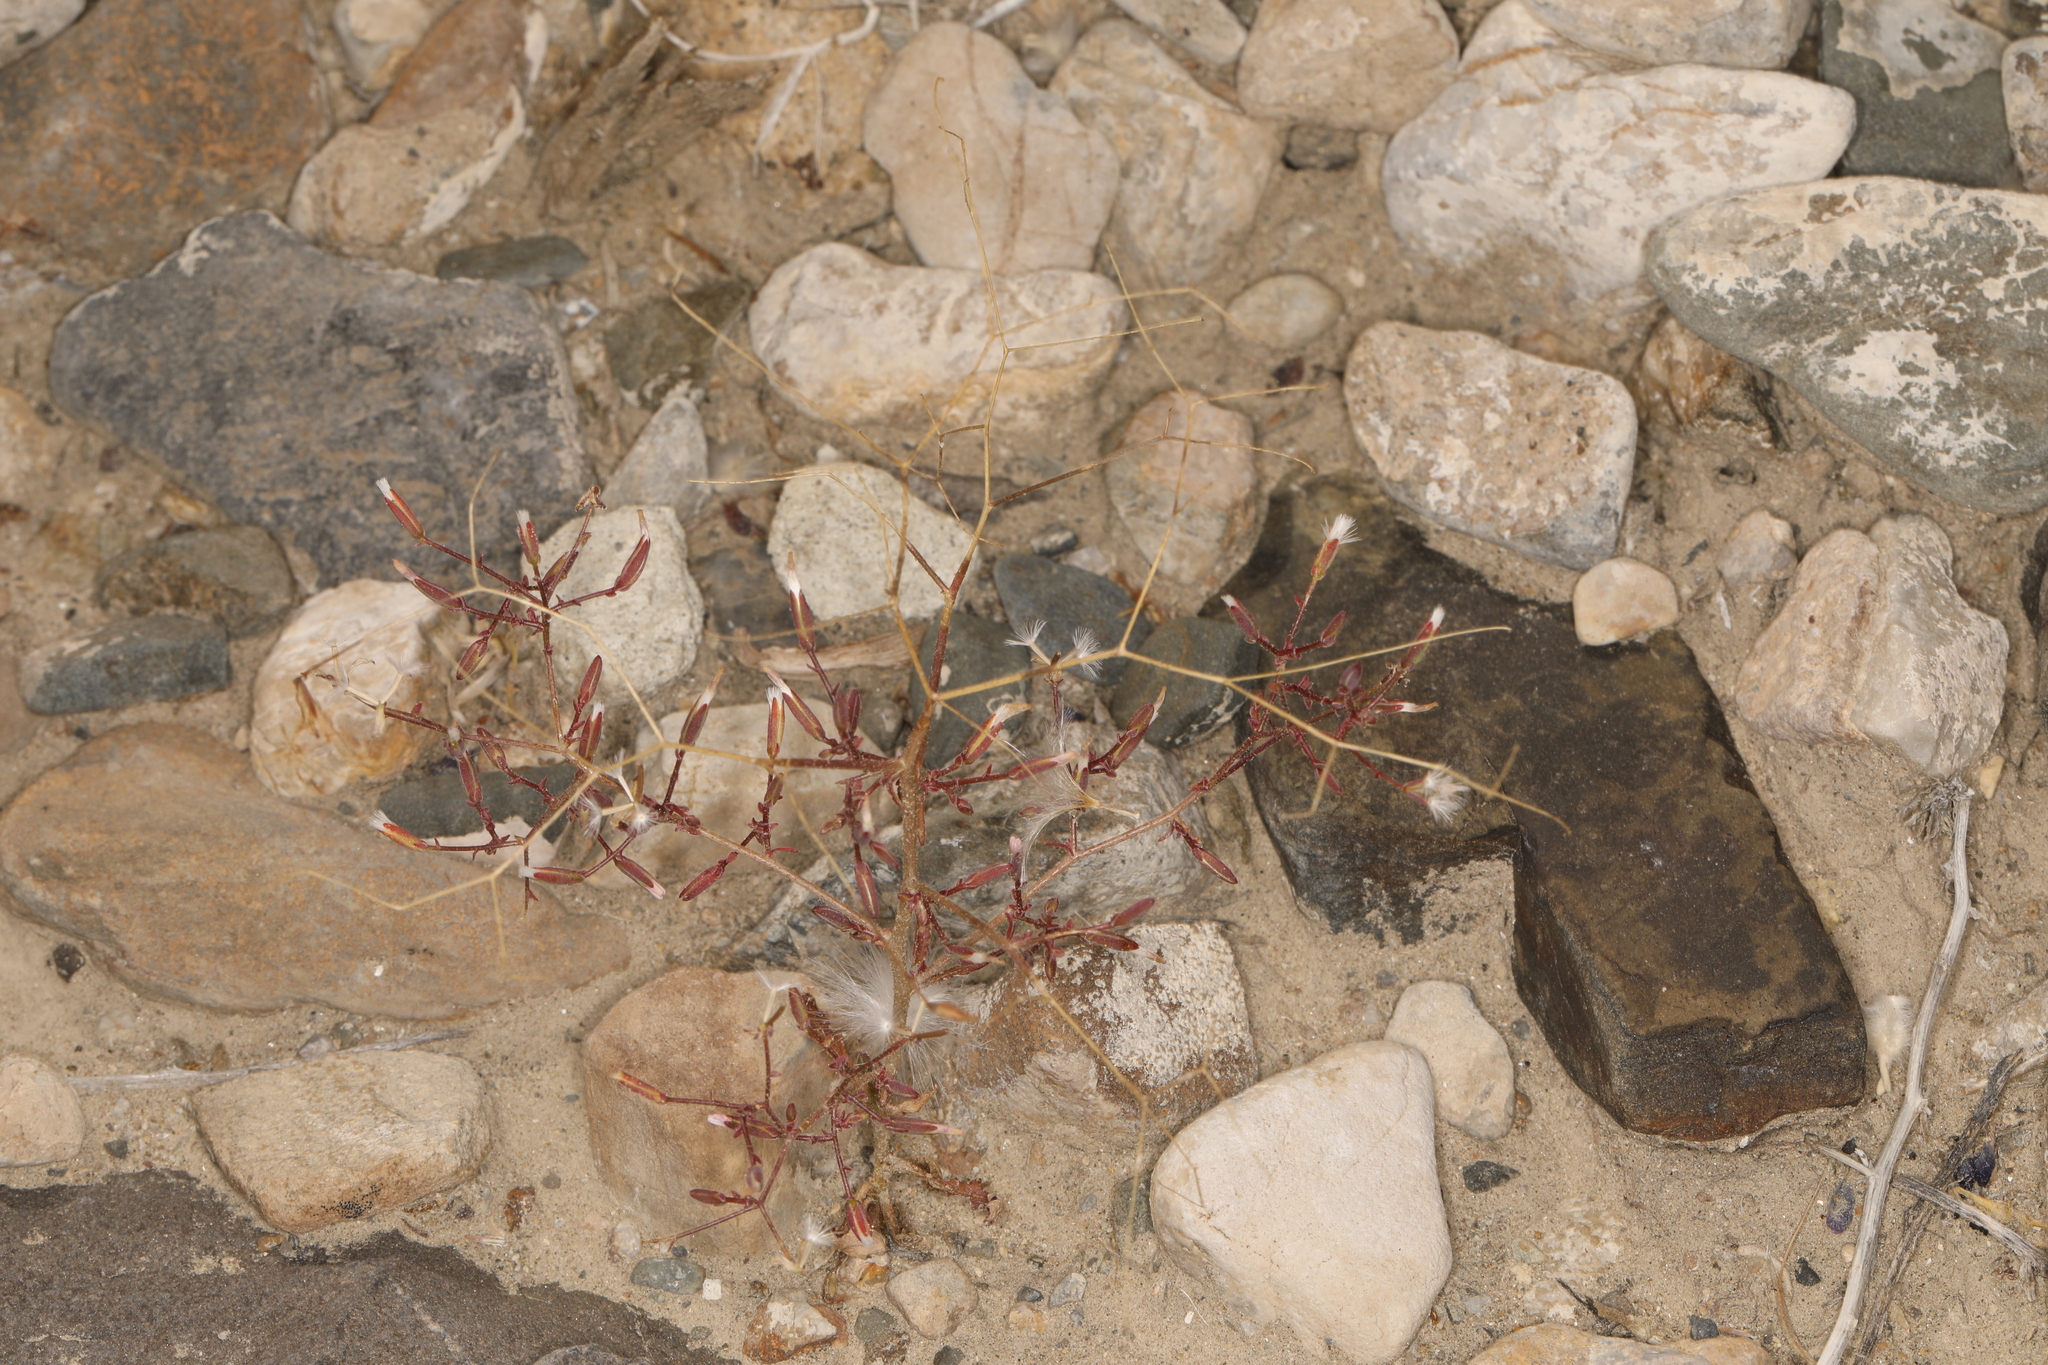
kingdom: Plantae
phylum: Tracheophyta
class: Magnoliopsida
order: Asterales
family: Asteraceae
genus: Lygodesmia
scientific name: Lygodesmia exigua
